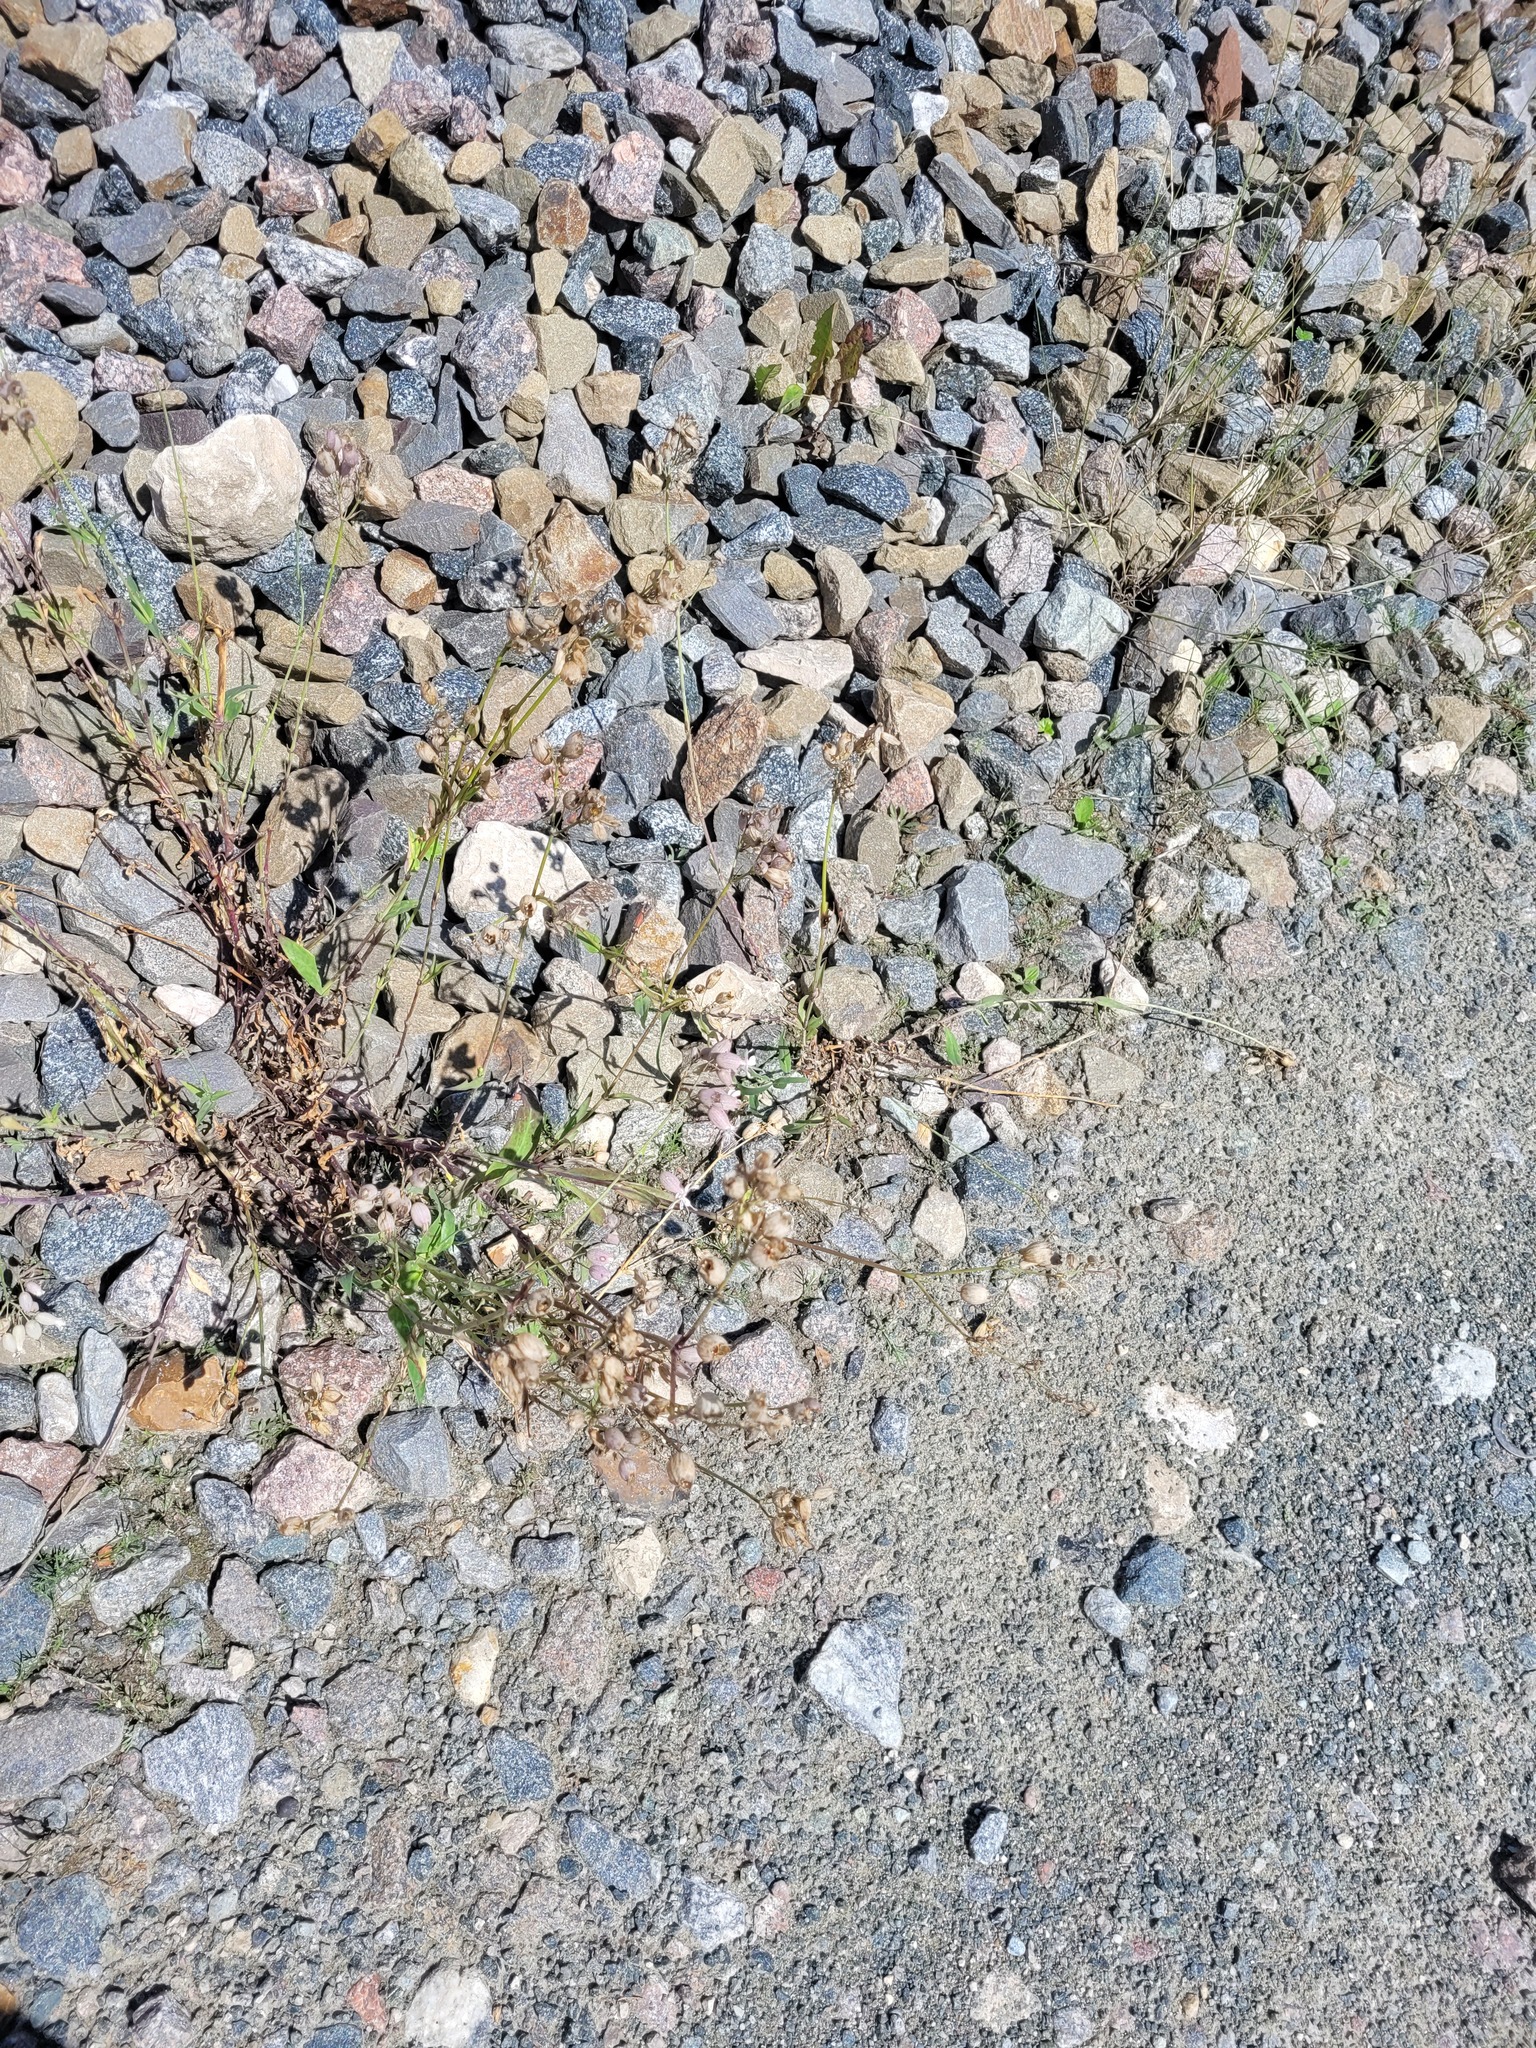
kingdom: Plantae
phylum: Tracheophyta
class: Magnoliopsida
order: Caryophyllales
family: Caryophyllaceae
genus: Silene
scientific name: Silene vulgaris
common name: Bladder campion
